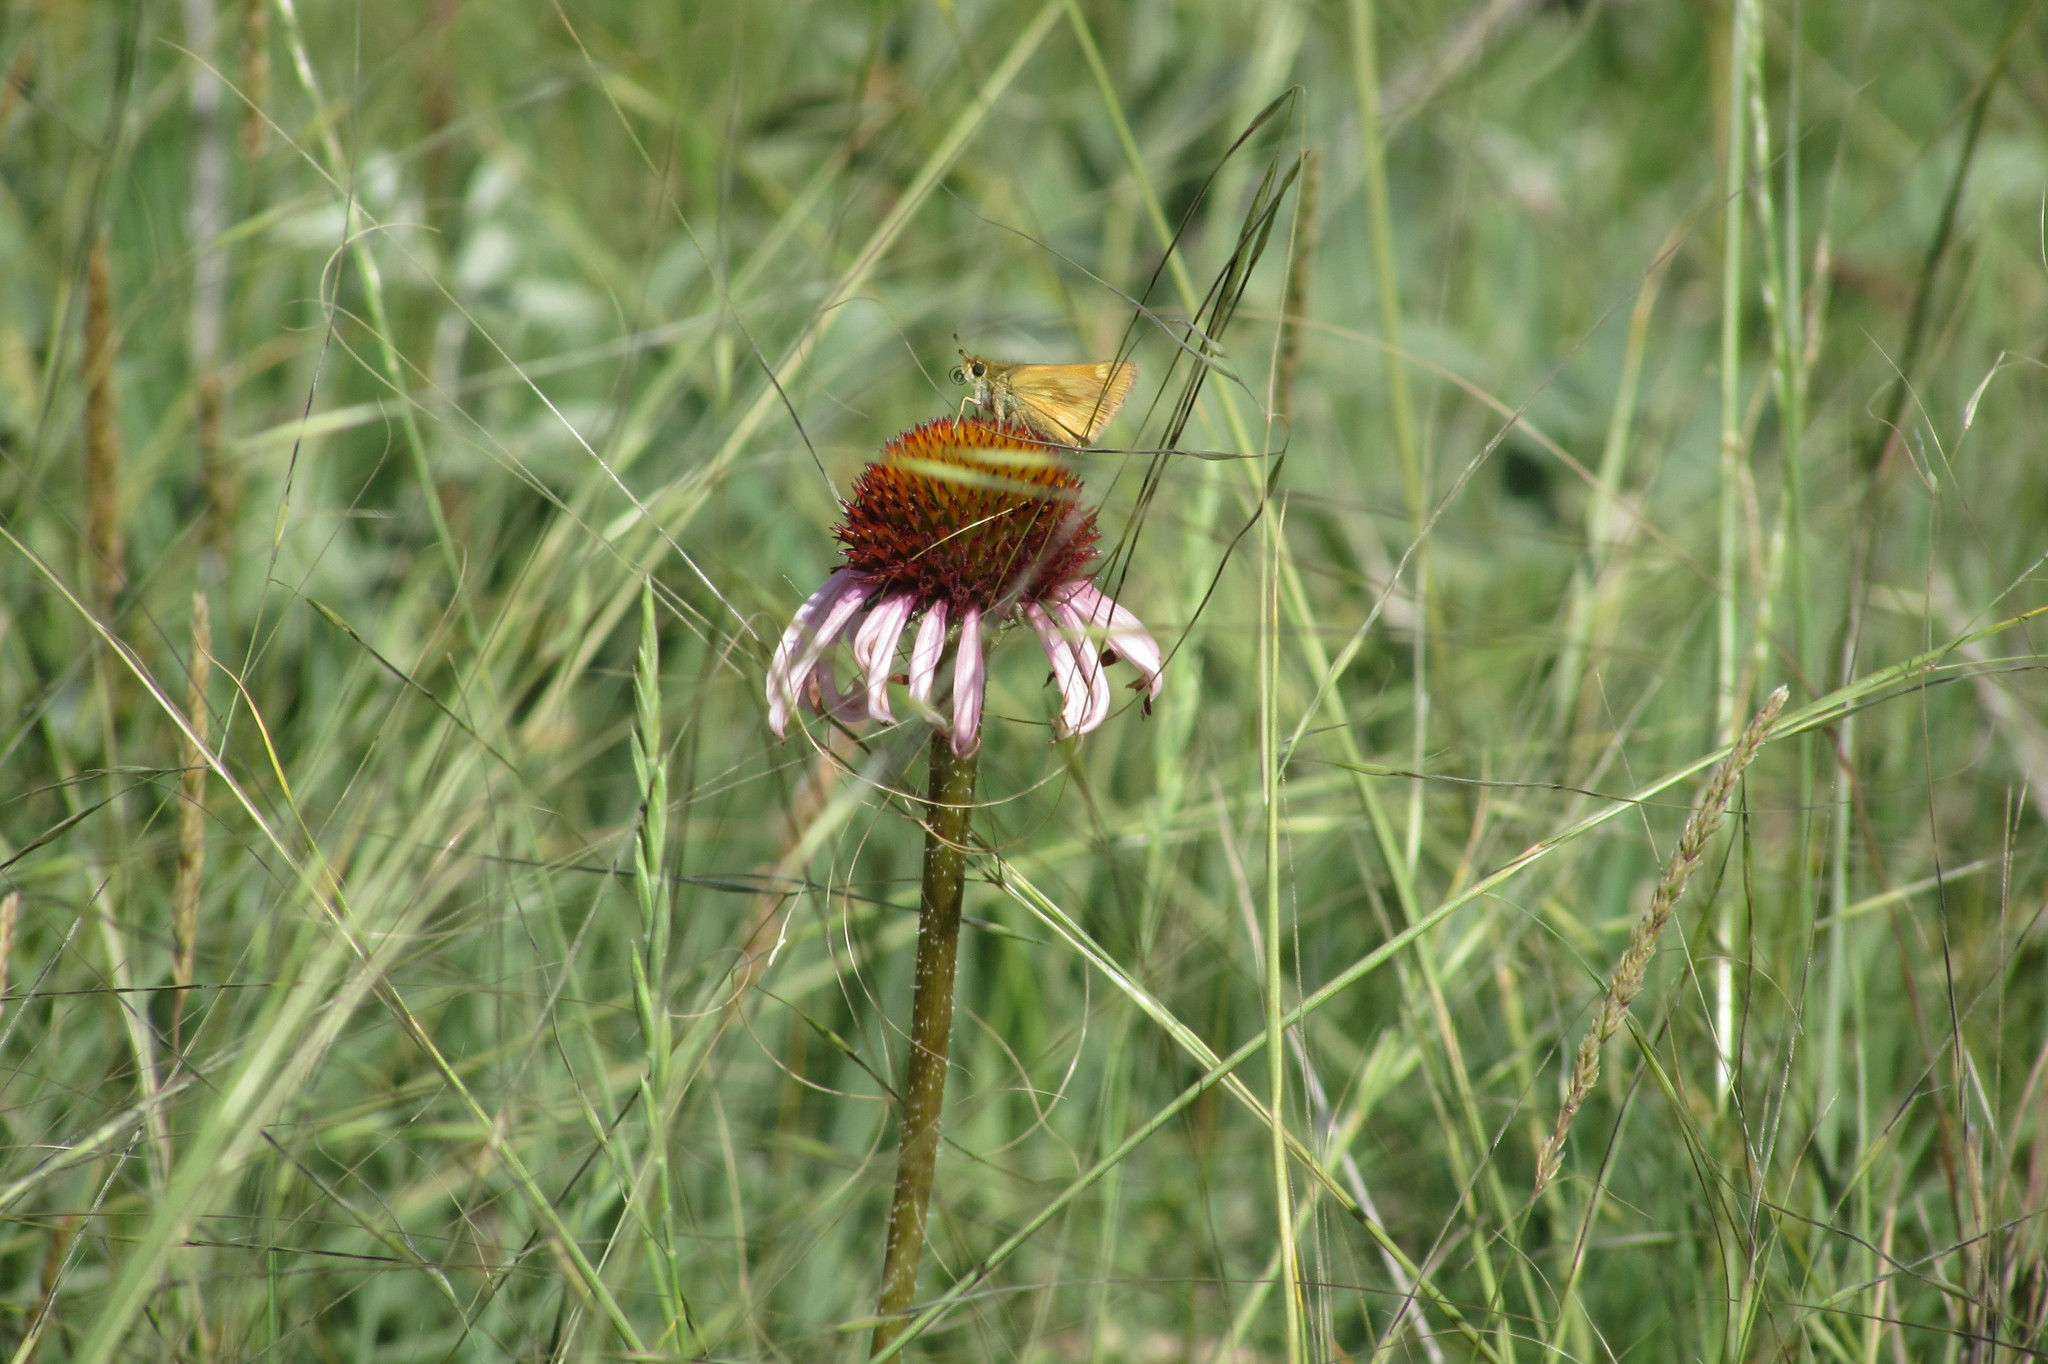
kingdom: Animalia
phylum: Arthropoda
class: Insecta
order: Lepidoptera
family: Hesperiidae
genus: Polites
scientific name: Polites mystic
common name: Long dash
